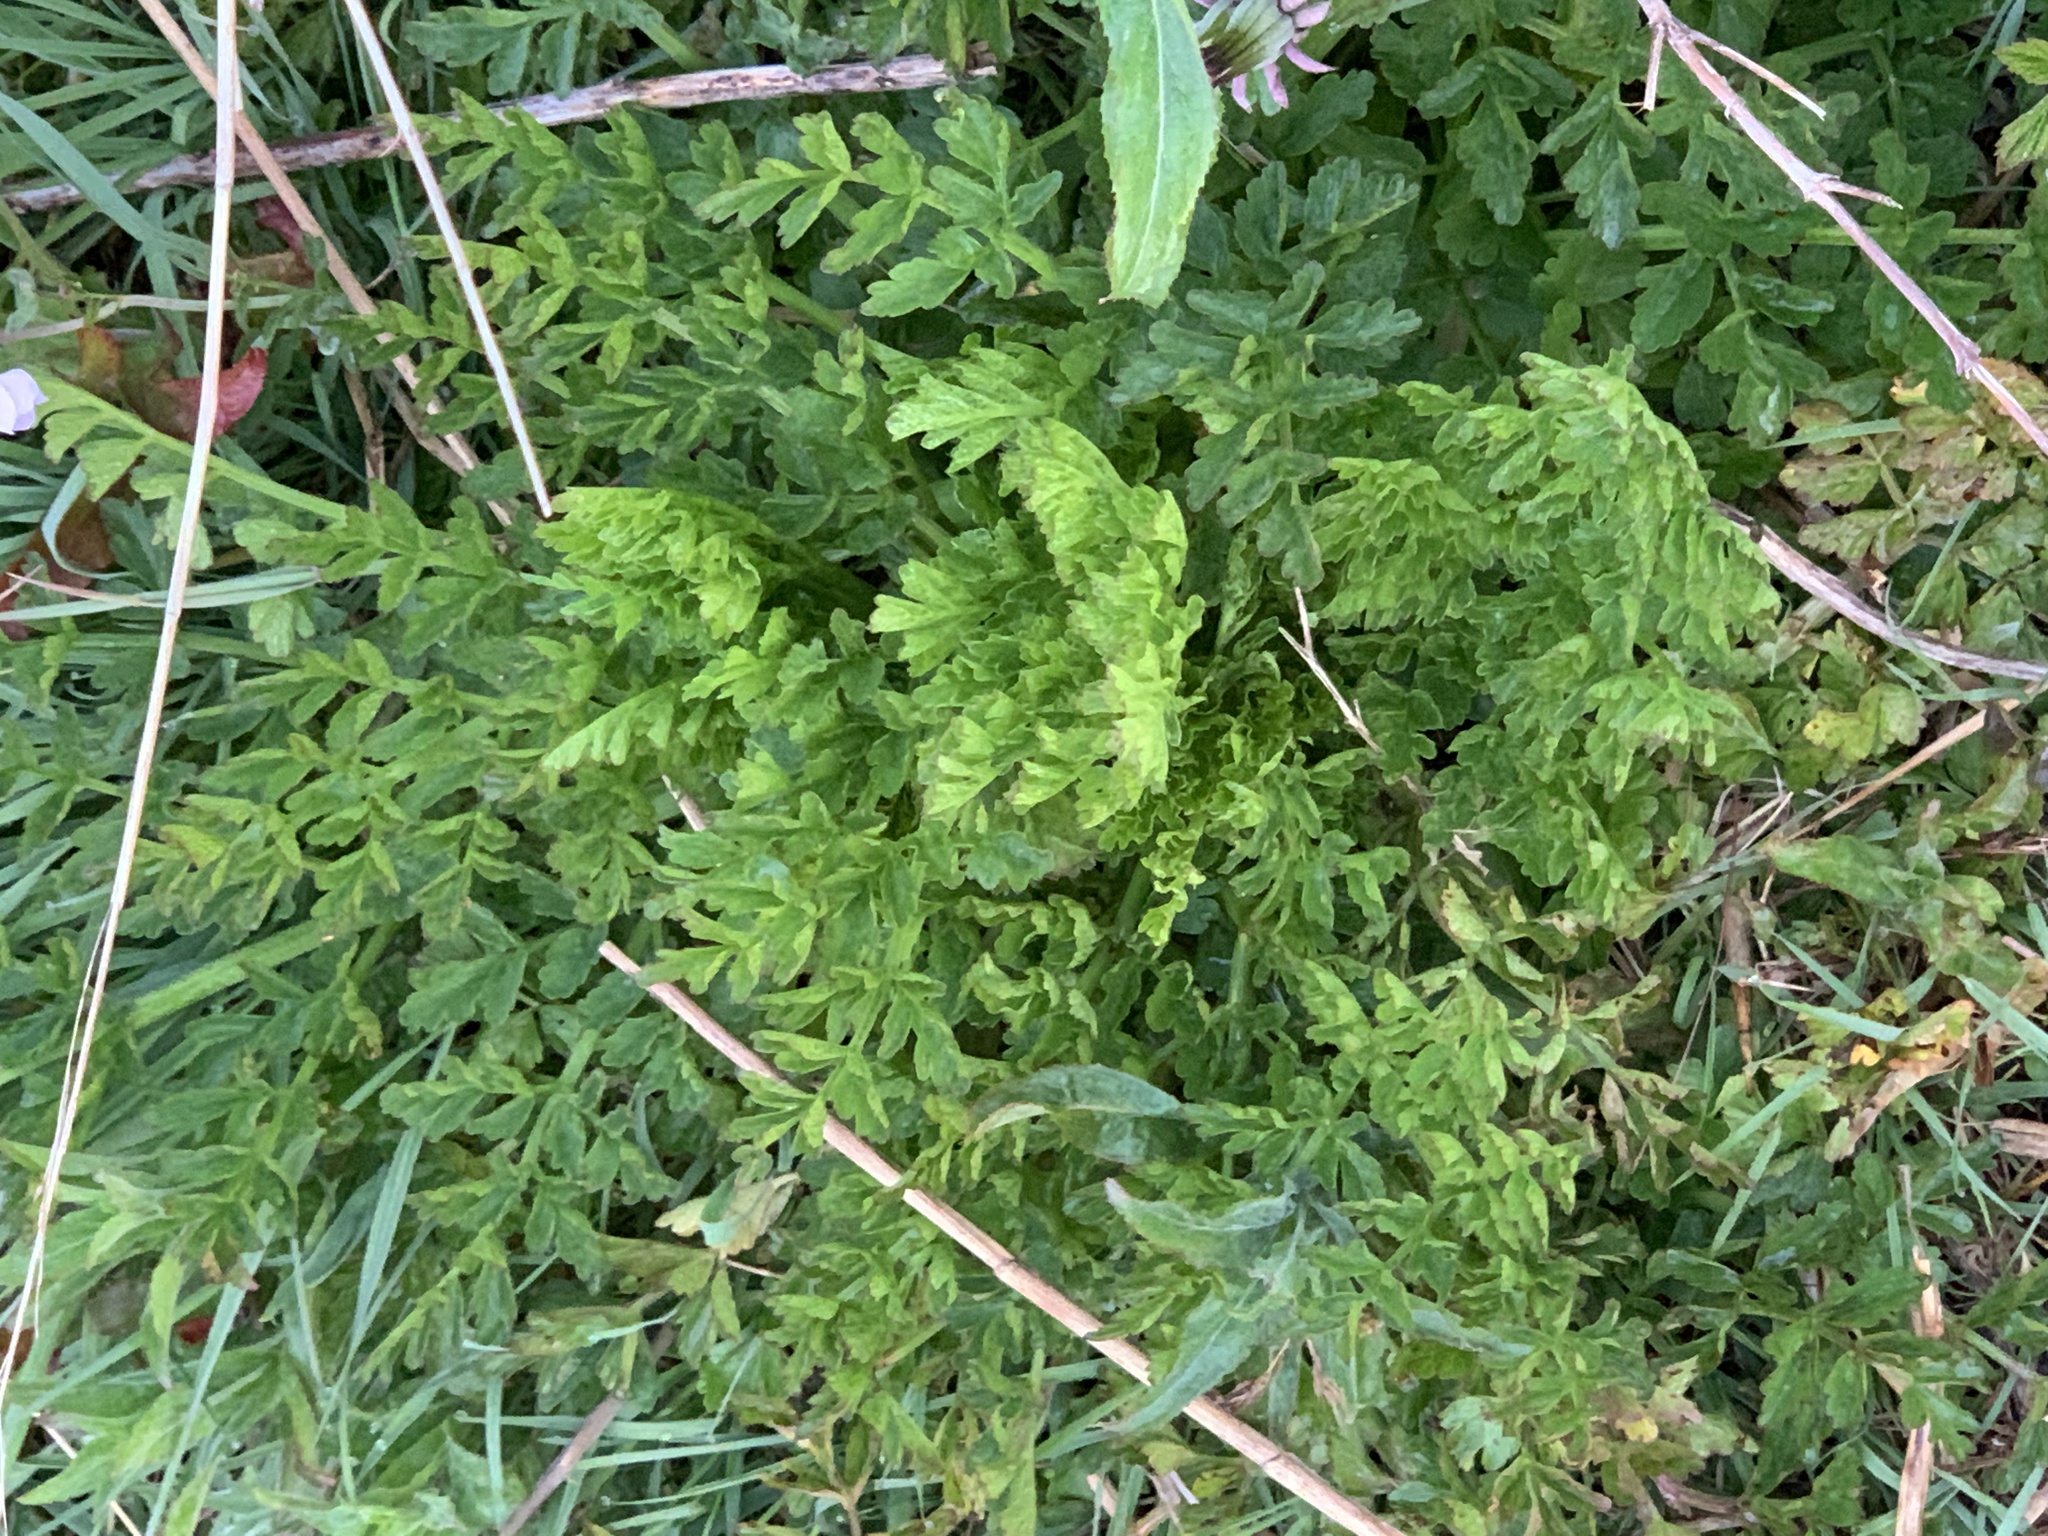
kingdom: Plantae
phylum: Tracheophyta
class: Magnoliopsida
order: Apiales
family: Apiaceae
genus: Oenanthe
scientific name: Oenanthe crocata
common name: Hemlock water-dropwort
